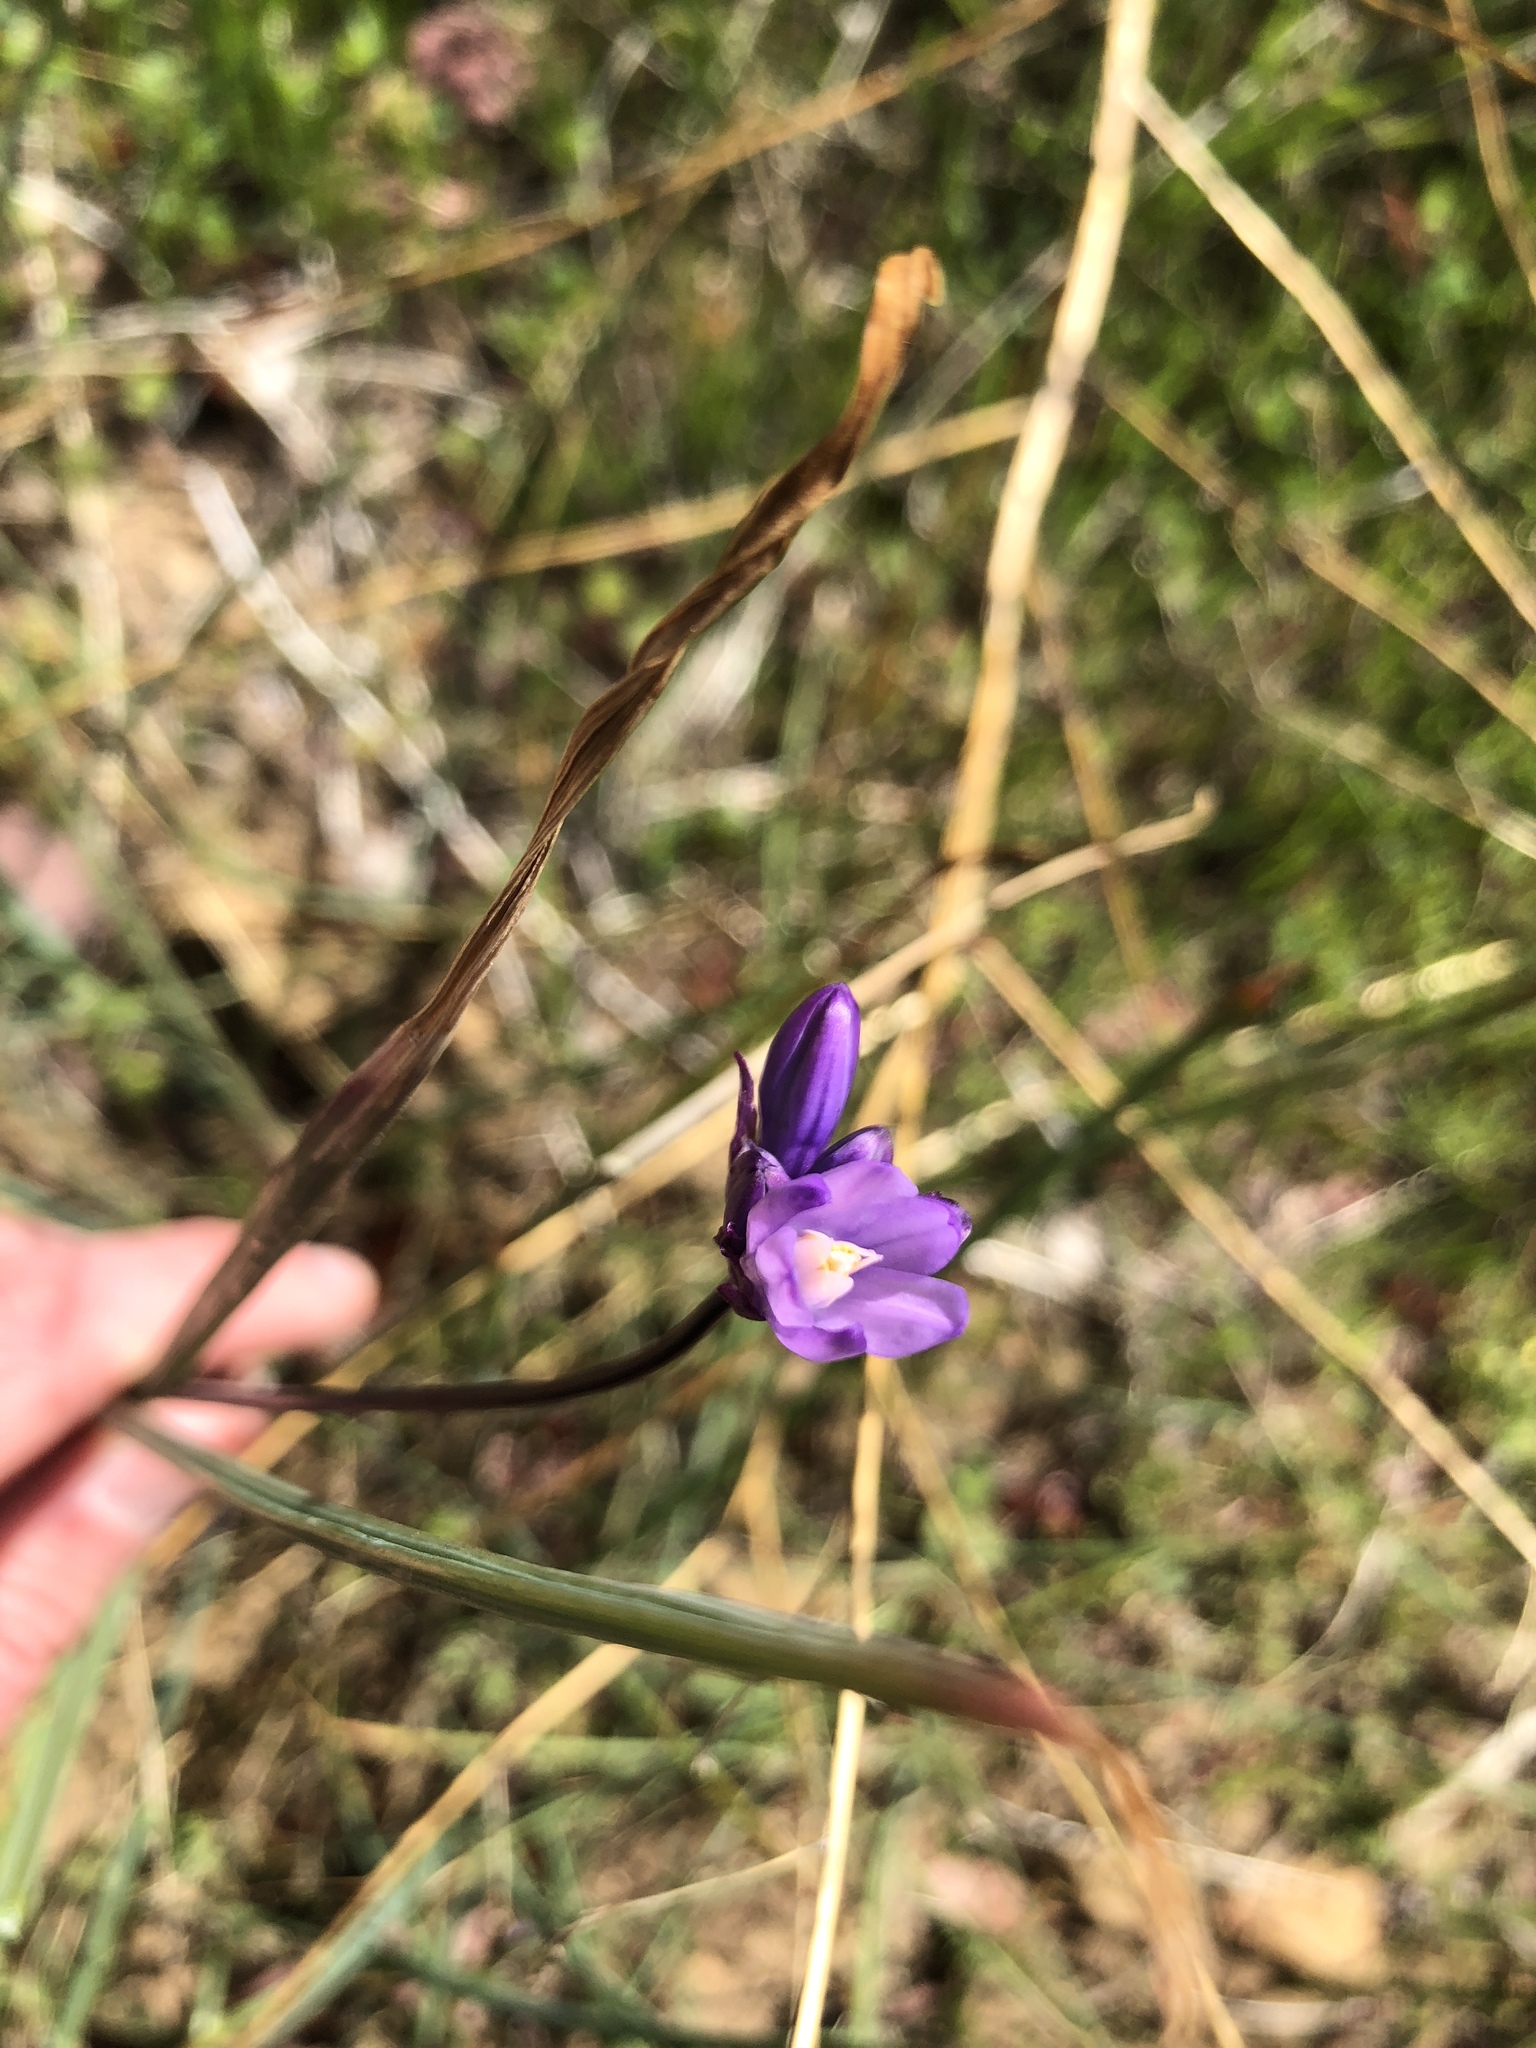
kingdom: Plantae
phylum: Tracheophyta
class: Liliopsida
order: Asparagales
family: Asparagaceae
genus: Dipterostemon
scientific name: Dipterostemon capitatus
